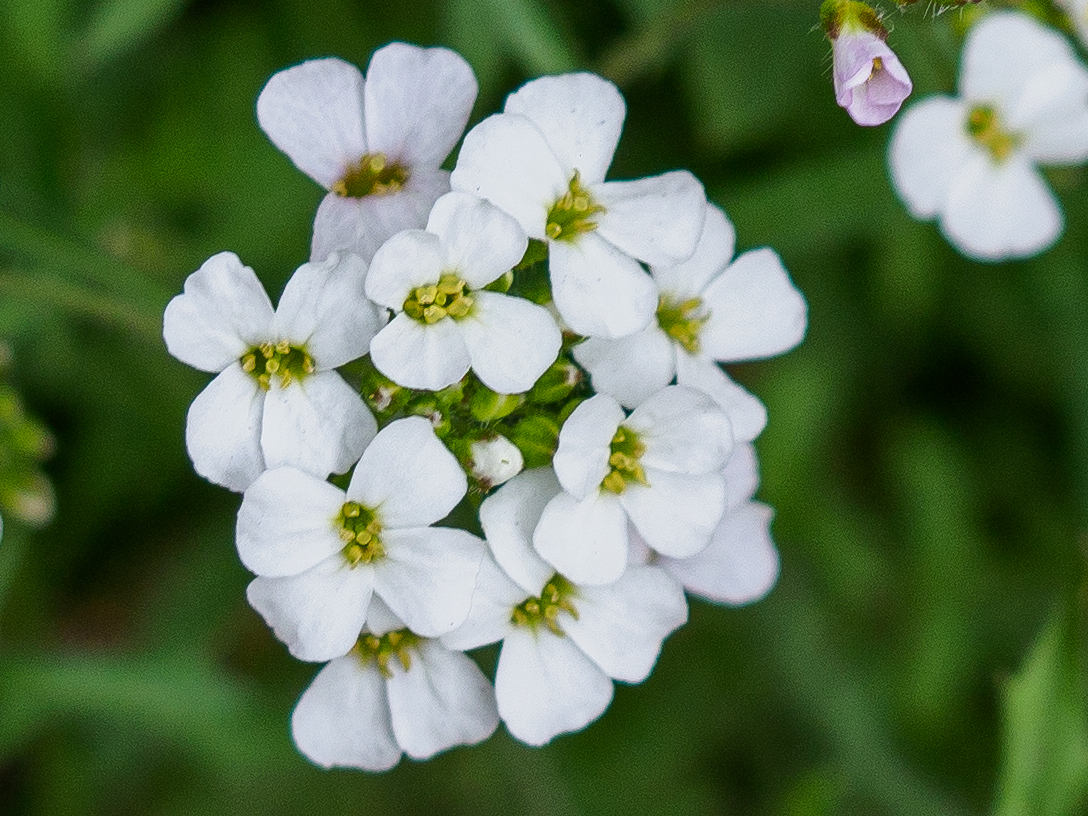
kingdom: Plantae
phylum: Tracheophyta
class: Magnoliopsida
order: Brassicales
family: Brassicaceae
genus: Arabidopsis
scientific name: Arabidopsis arenosa
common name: Sand rock-cress
